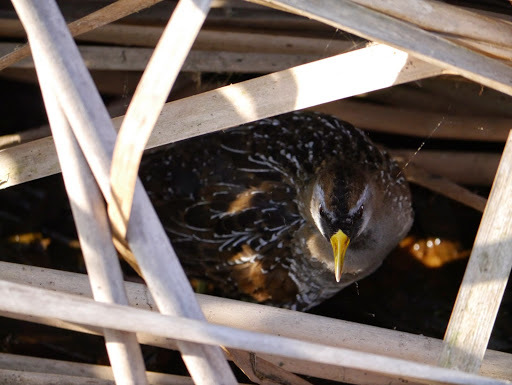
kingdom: Animalia
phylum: Chordata
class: Aves
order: Gruiformes
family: Rallidae
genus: Porzana
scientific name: Porzana carolina
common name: Sora
